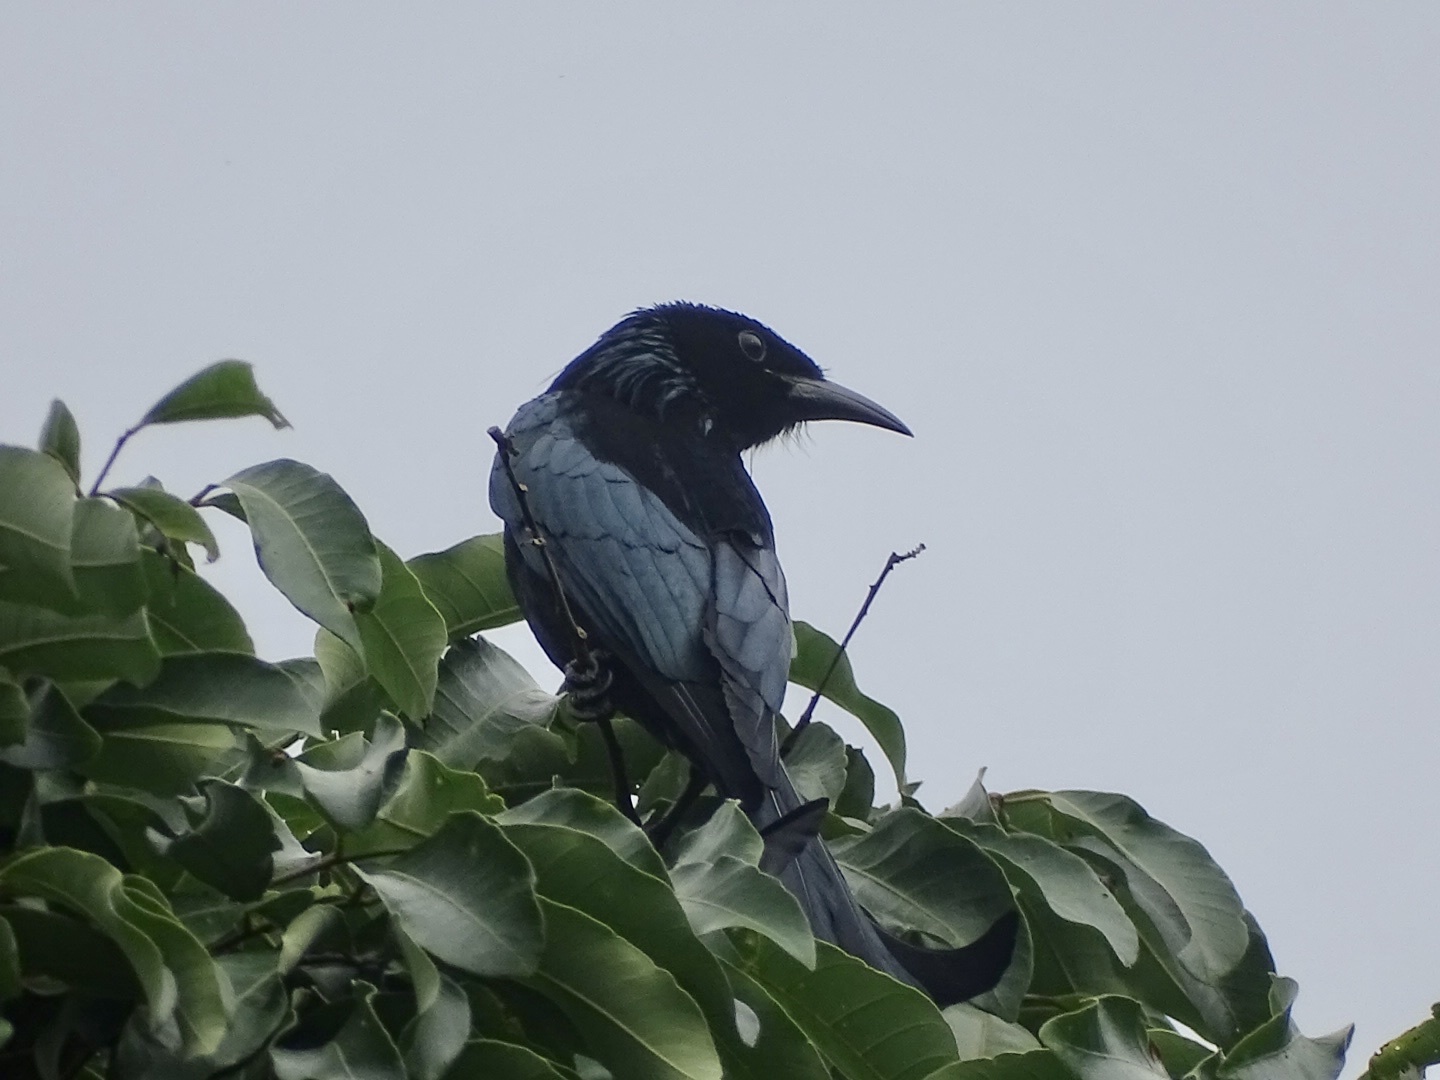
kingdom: Animalia
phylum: Chordata
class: Aves
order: Passeriformes
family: Dicruridae
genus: Dicrurus
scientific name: Dicrurus hottentottus
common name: Hair-crested drongo
